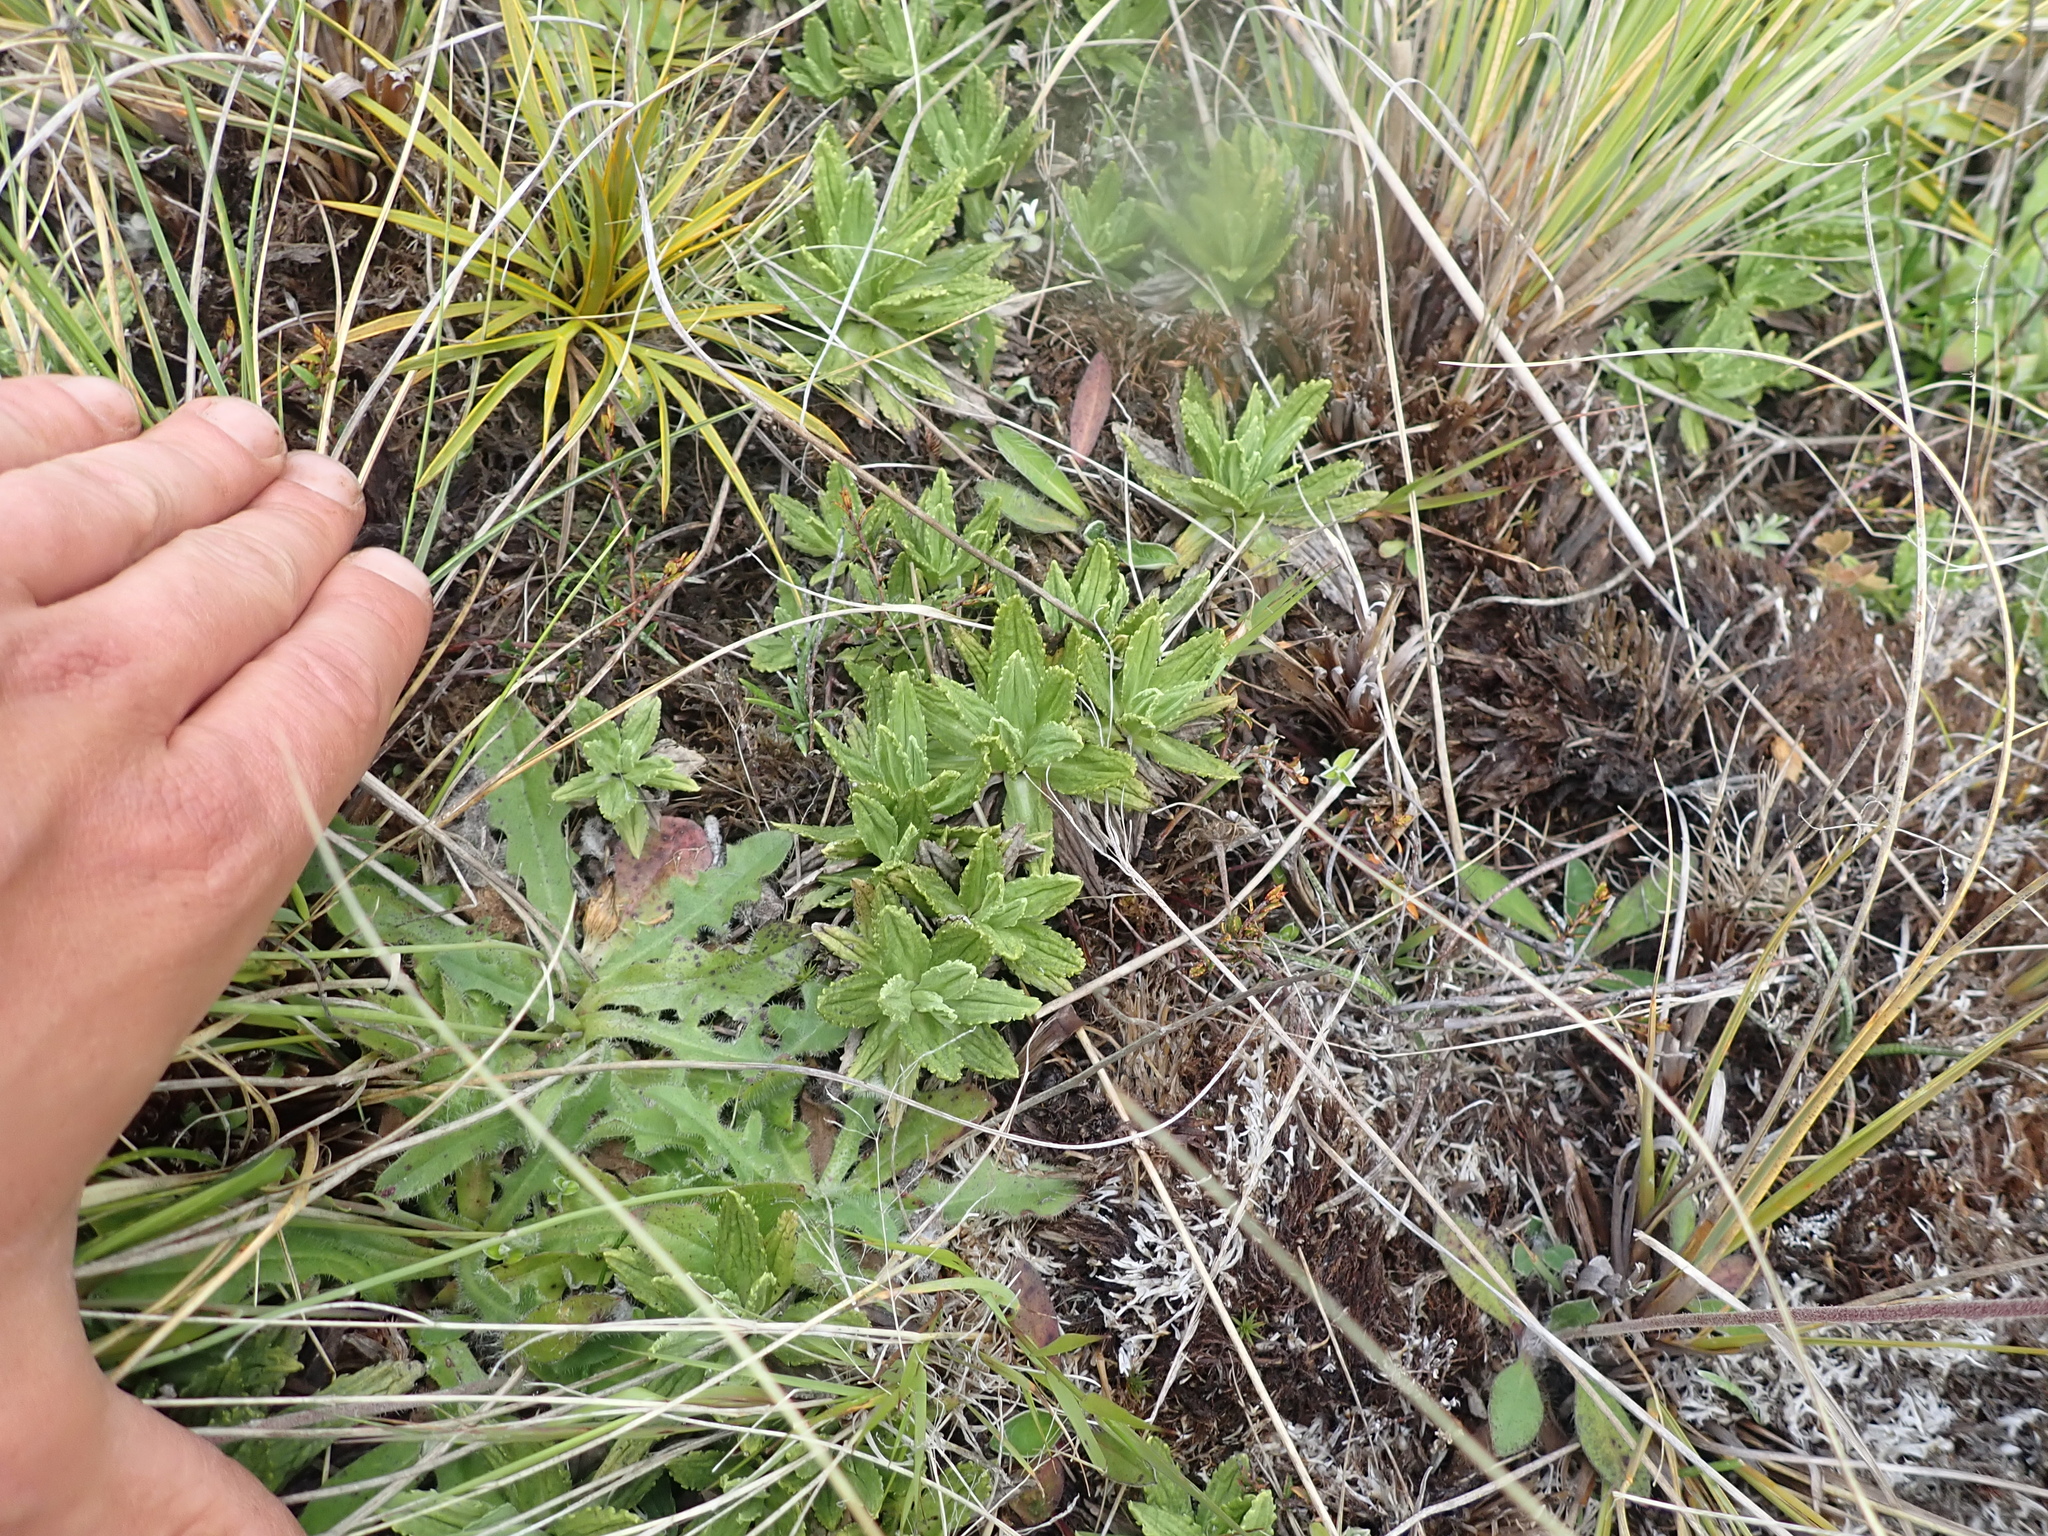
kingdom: Plantae
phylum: Tracheophyta
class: Magnoliopsida
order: Asterales
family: Asteraceae
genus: Celmisia
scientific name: Celmisia prorepens
